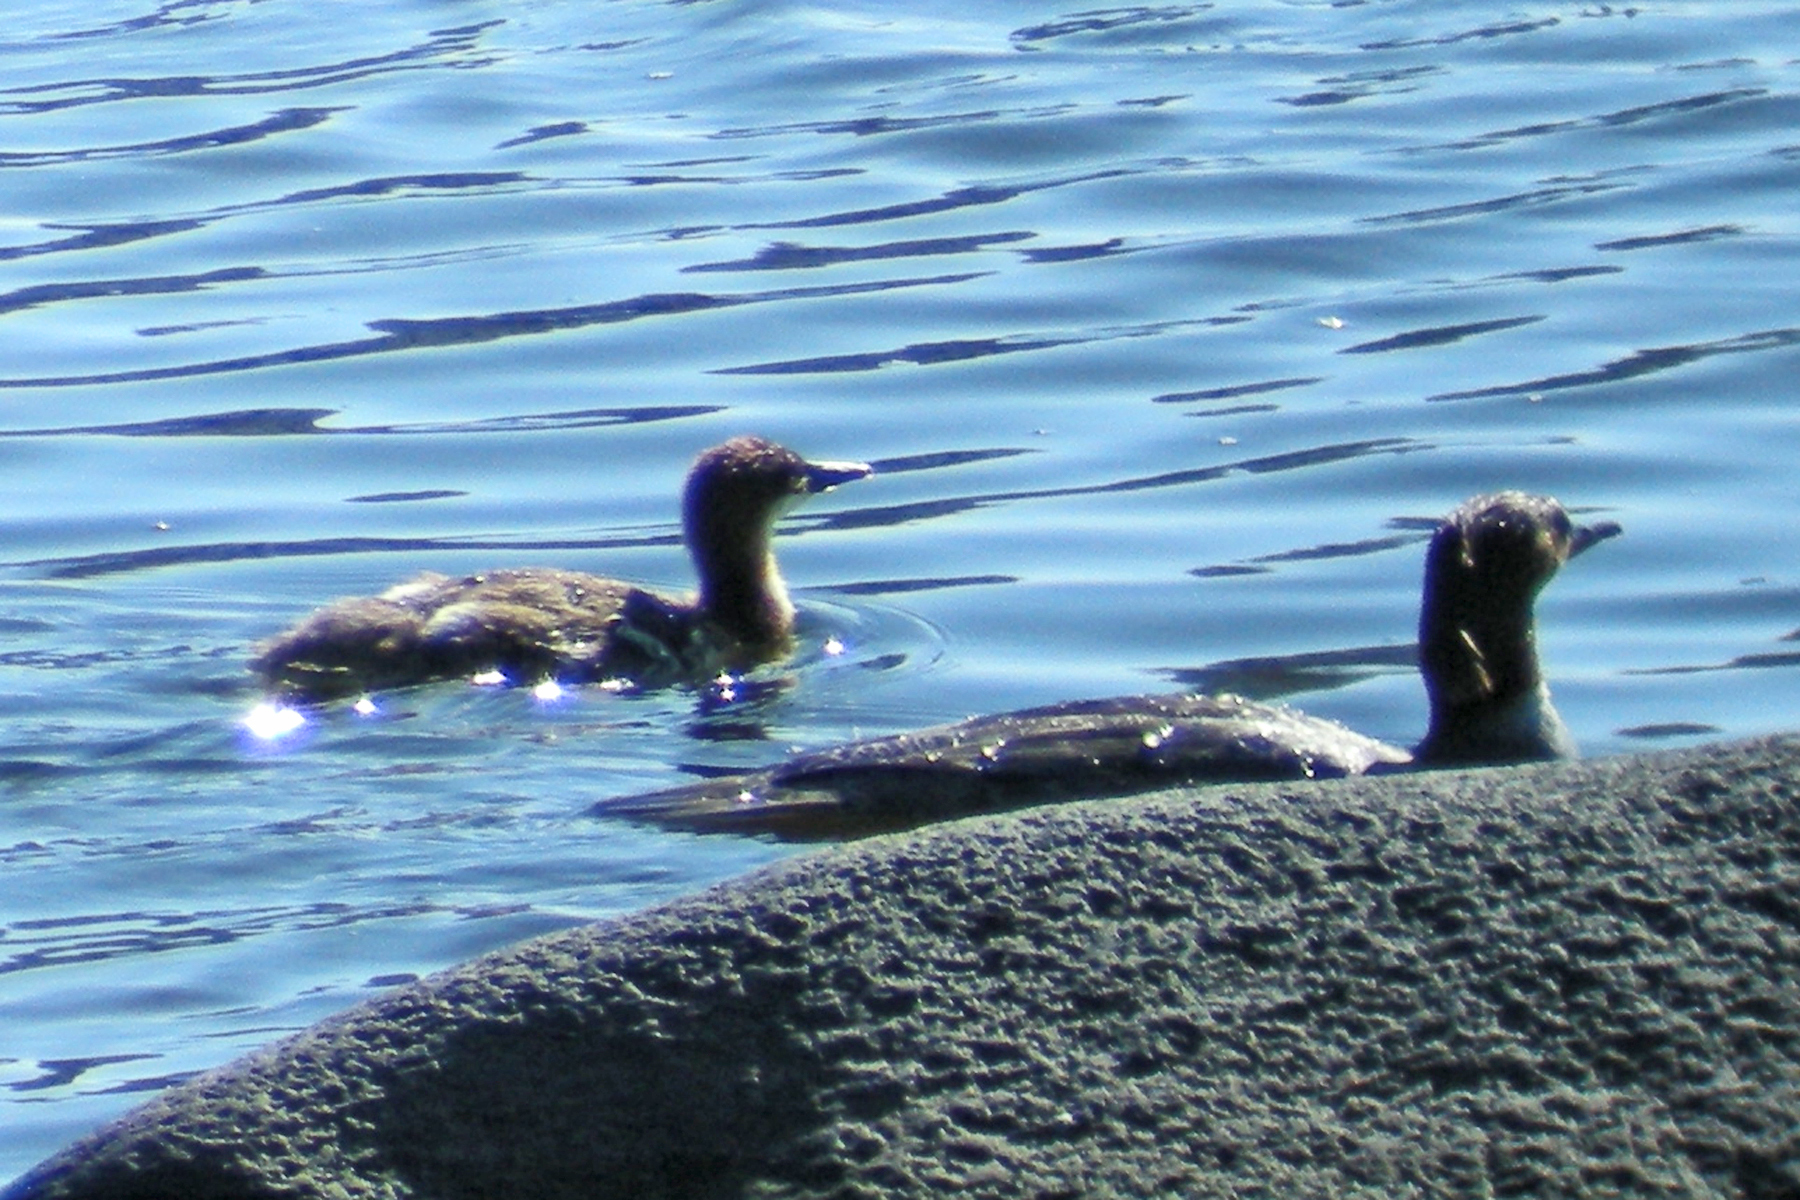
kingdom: Animalia
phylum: Chordata
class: Aves
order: Anseriformes
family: Anatidae
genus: Mergus
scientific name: Mergus merganser
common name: Common merganser
